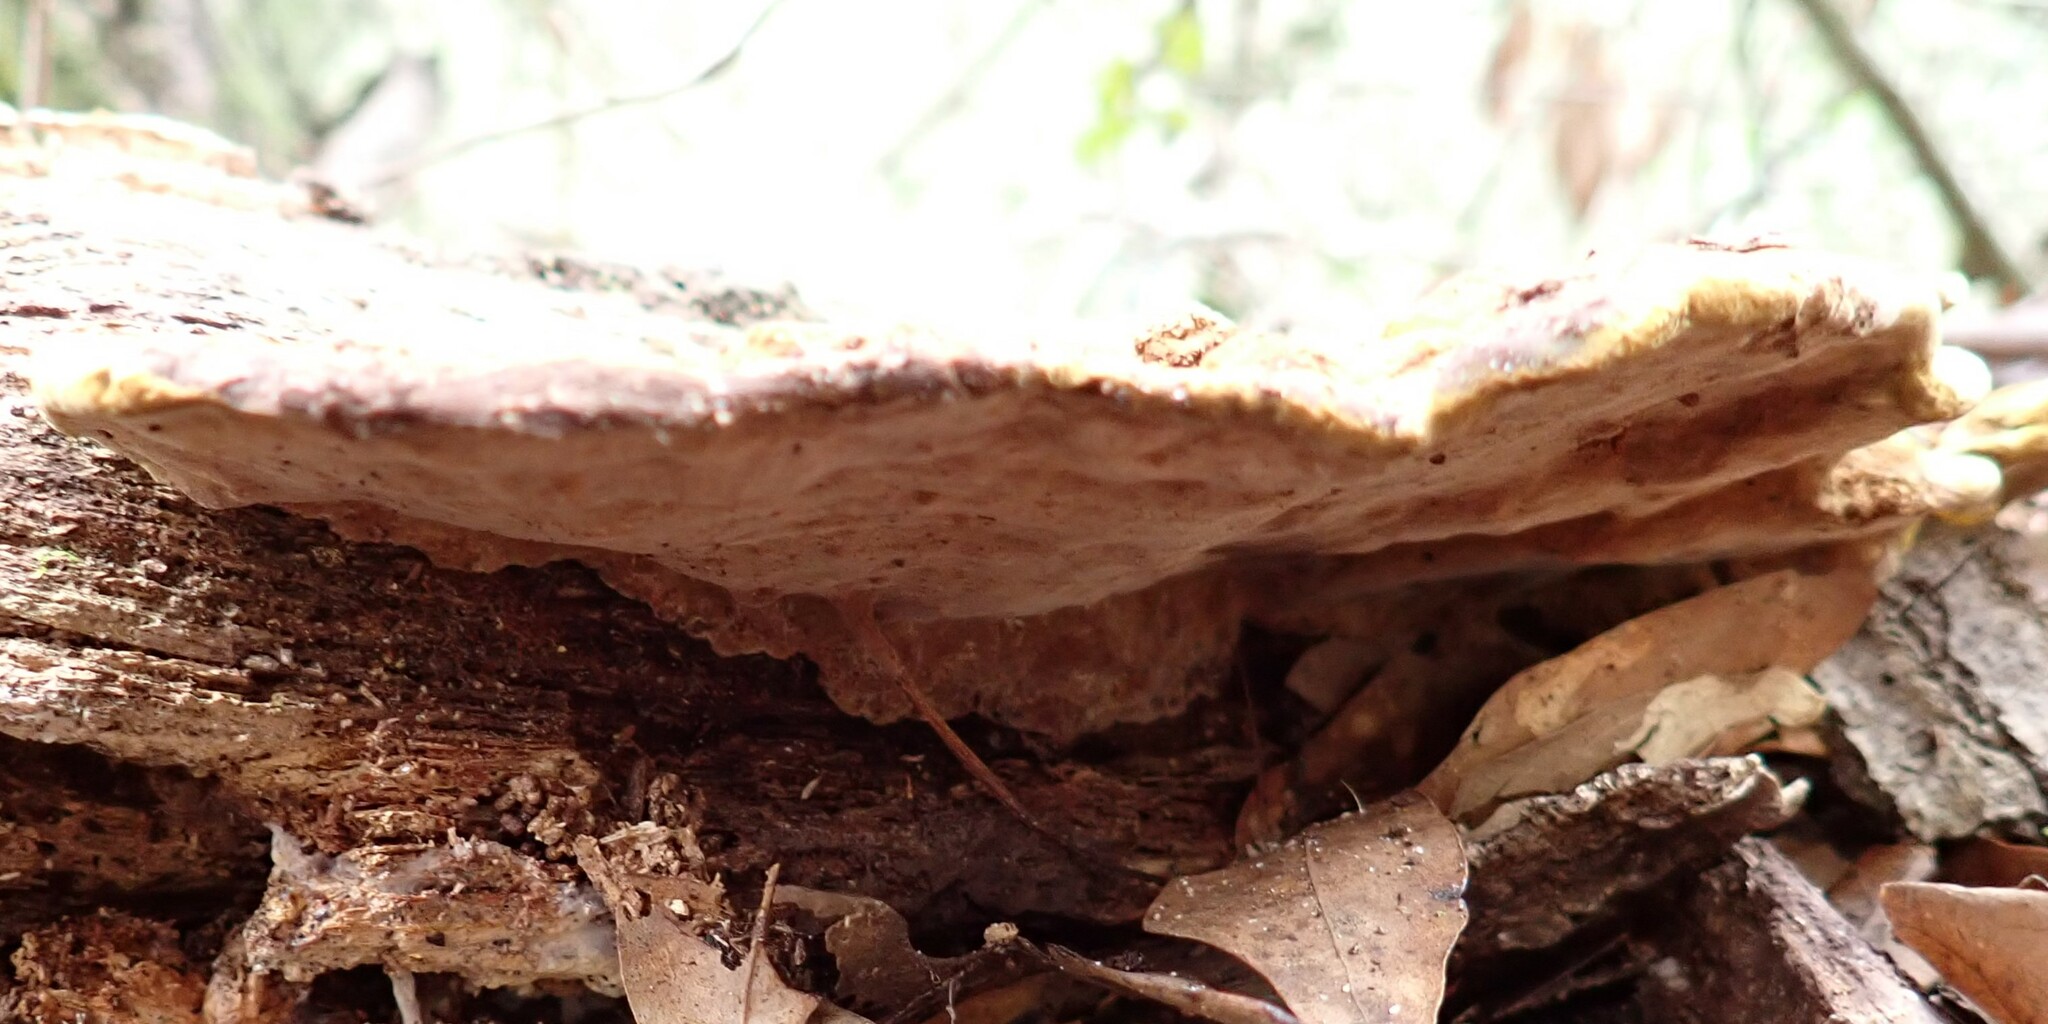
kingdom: Fungi
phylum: Basidiomycota
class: Agaricomycetes
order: Hymenochaetales
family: Hymenochaetaceae
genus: Phellinus
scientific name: Phellinus gilvus
